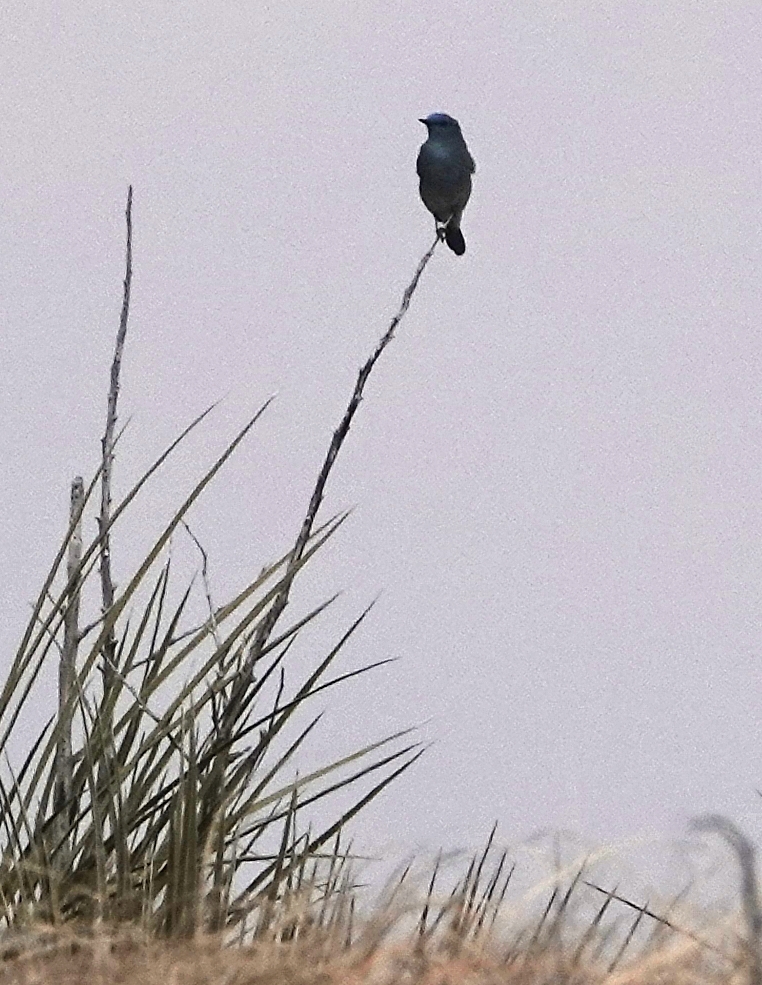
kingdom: Animalia
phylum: Chordata
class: Aves
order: Passeriformes
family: Turdidae
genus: Sialia
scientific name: Sialia currucoides
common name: Mountain bluebird
